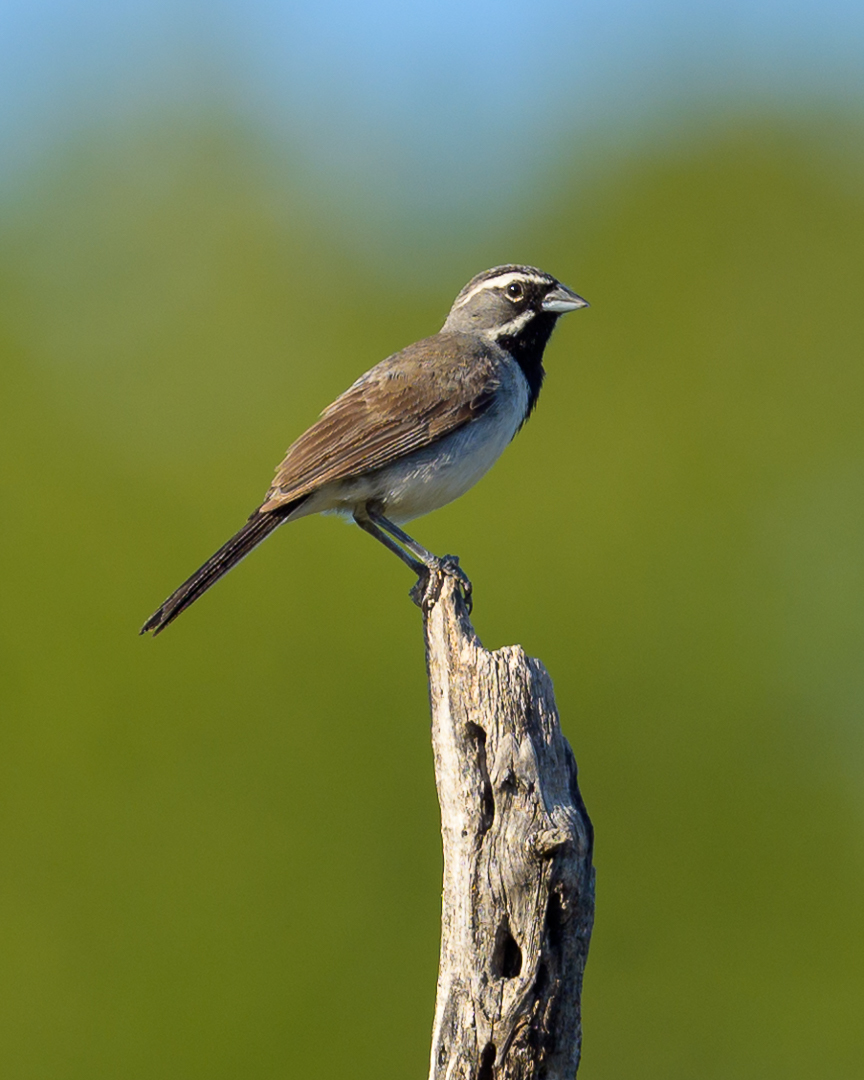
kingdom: Animalia
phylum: Chordata
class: Aves
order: Passeriformes
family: Passerellidae
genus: Amphispiza
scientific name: Amphispiza bilineata
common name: Black-throated sparrow
